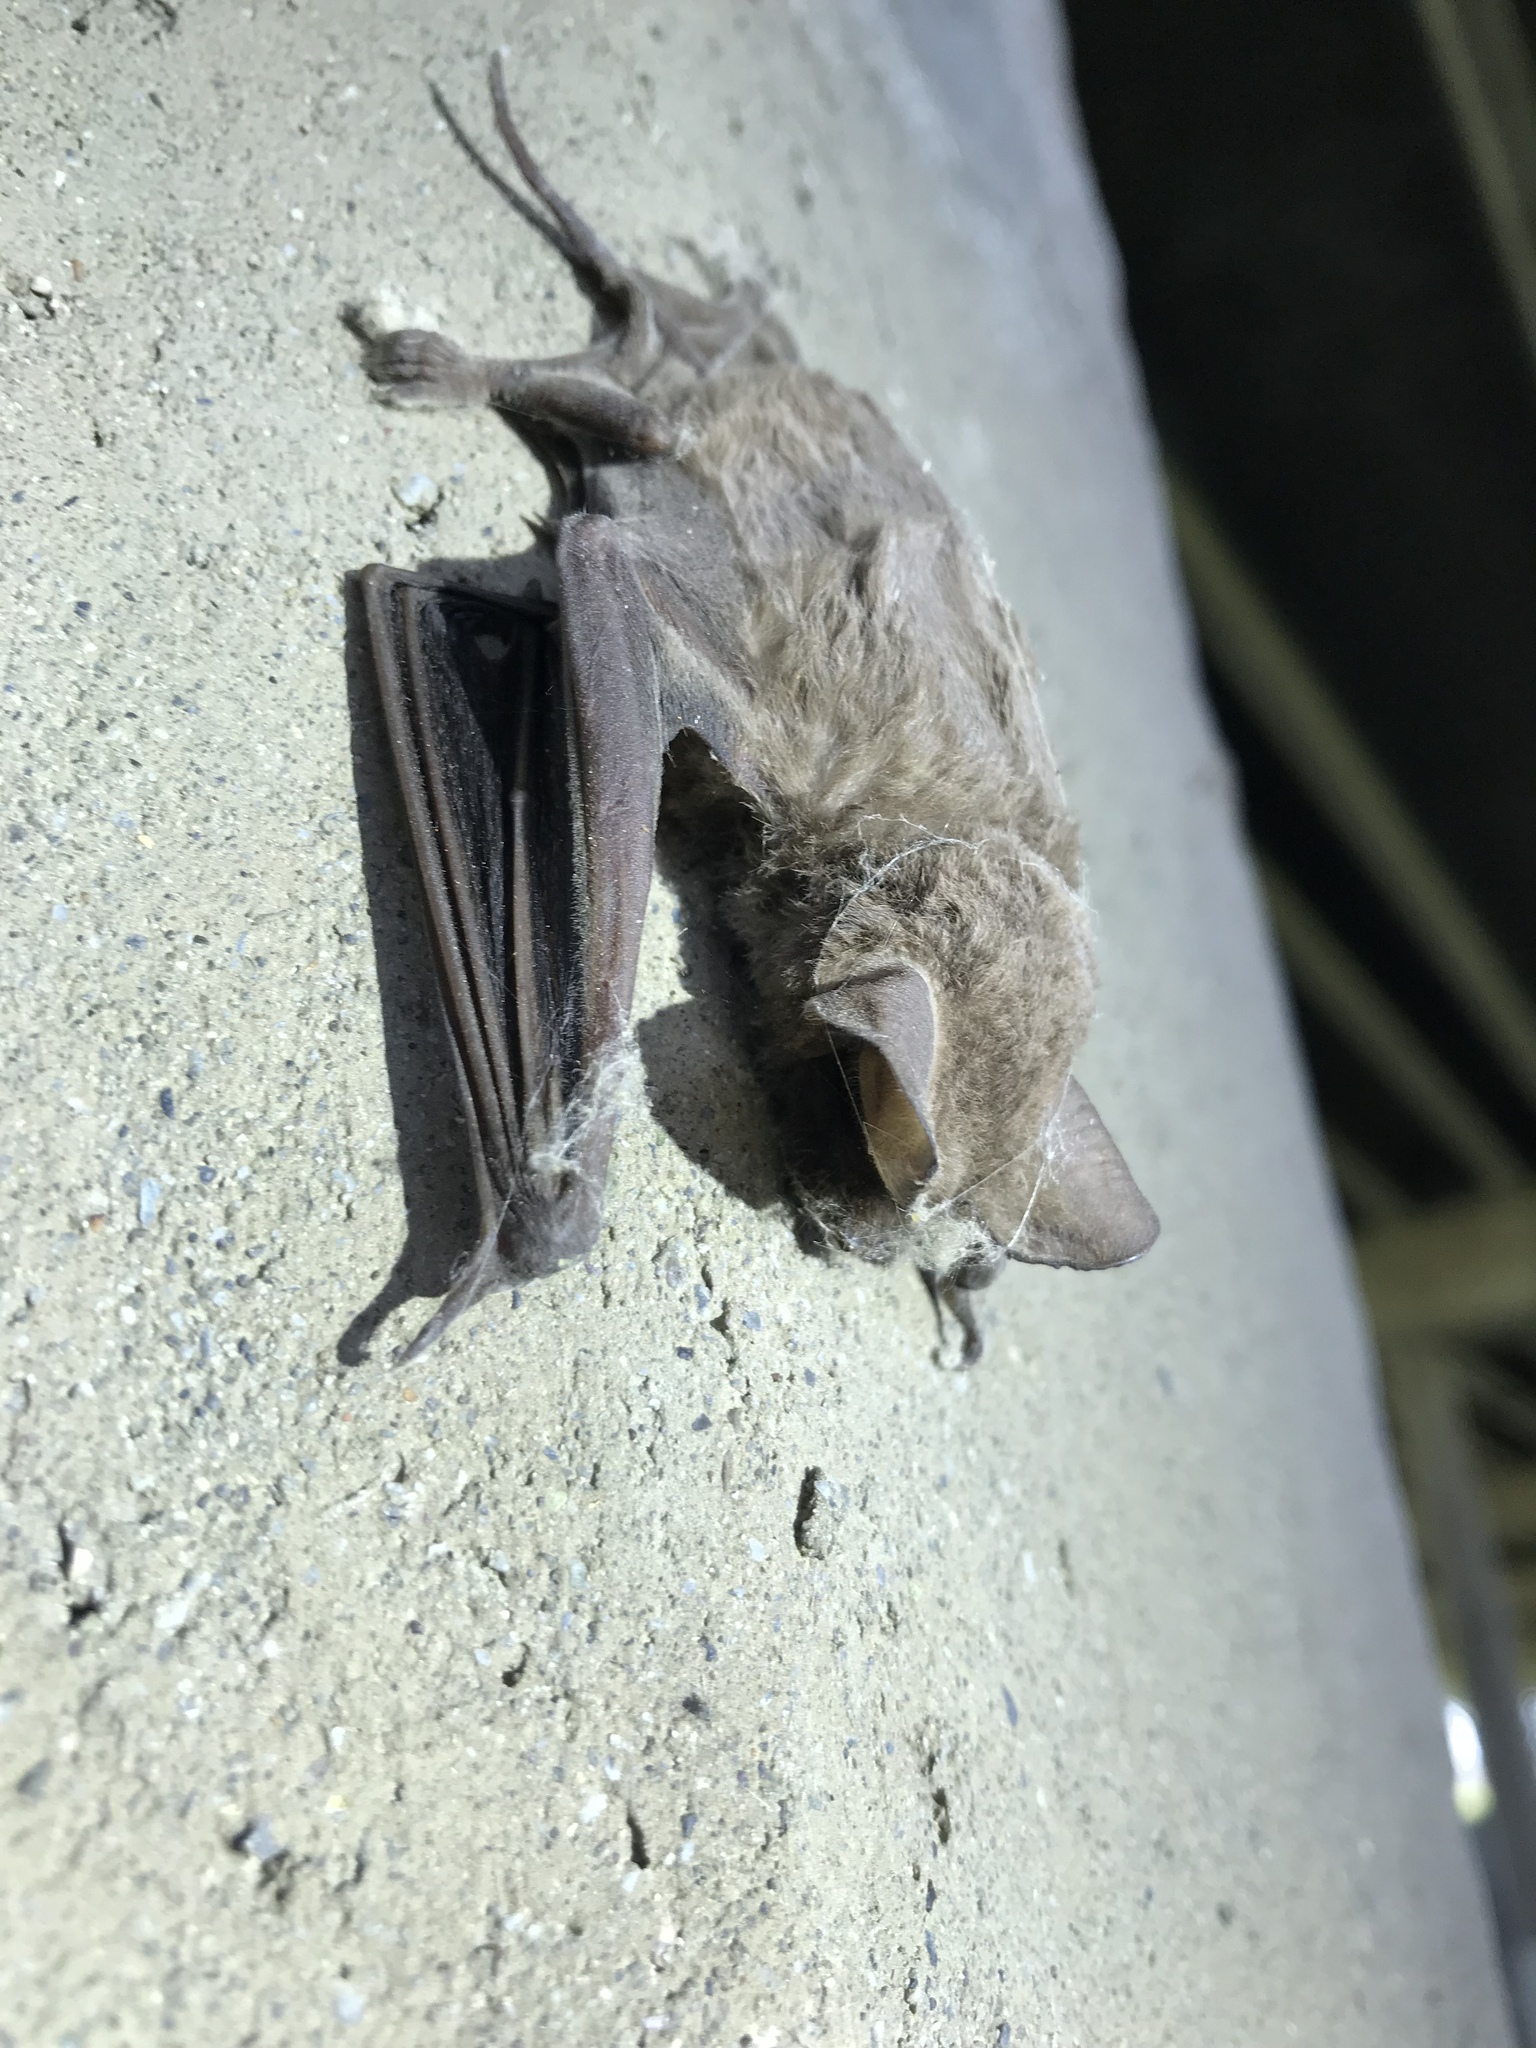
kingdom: Animalia
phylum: Chordata
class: Mammalia
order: Chiroptera
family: Molossidae
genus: Tadarida
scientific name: Tadarida brasiliensis
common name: Mexican free-tailed bat
